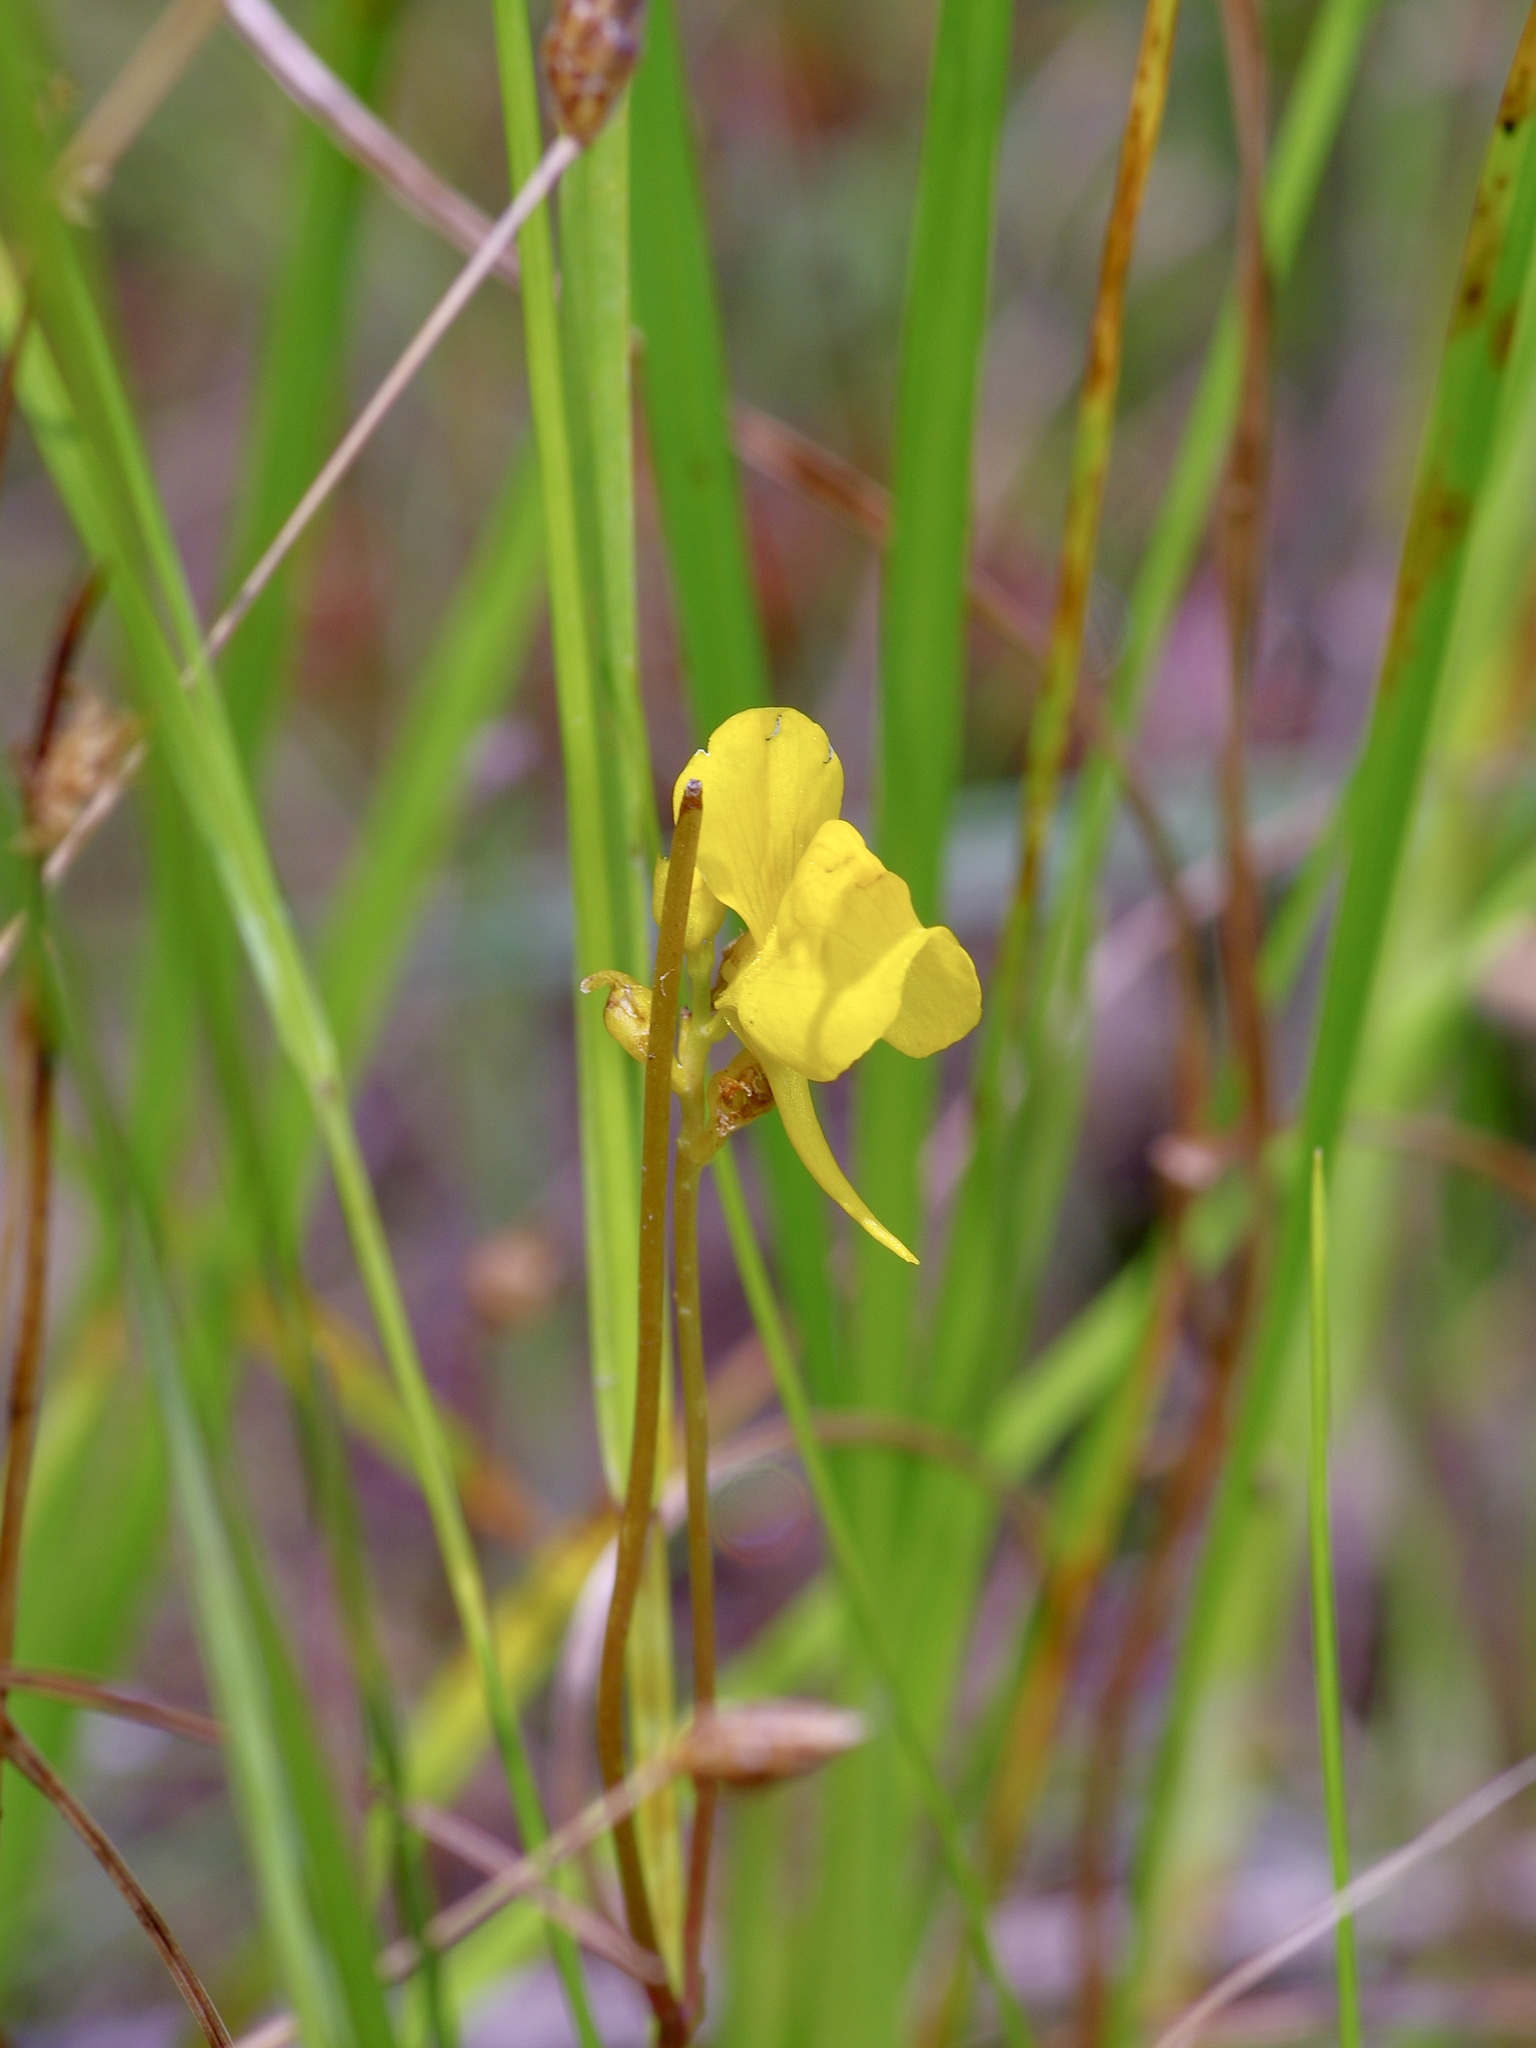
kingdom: Plantae
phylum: Tracheophyta
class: Magnoliopsida
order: Lamiales
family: Lentibulariaceae
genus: Utricularia
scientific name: Utricularia cornuta
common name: Horned bladderwort
